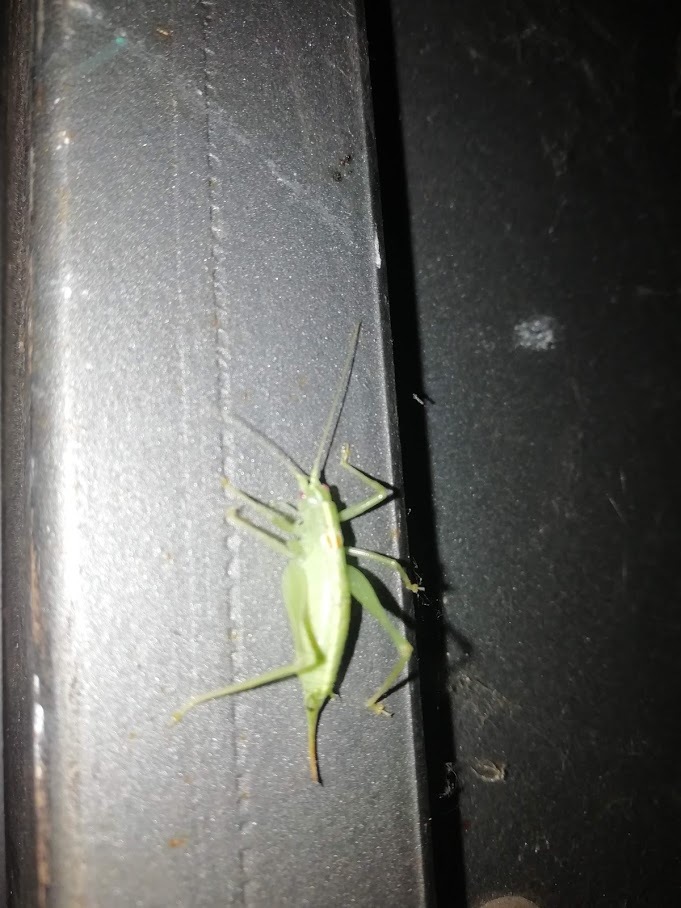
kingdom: Animalia
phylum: Arthropoda
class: Insecta
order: Orthoptera
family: Tettigoniidae
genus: Meconema
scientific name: Meconema meridionale
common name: Southern oak bush-cricket
